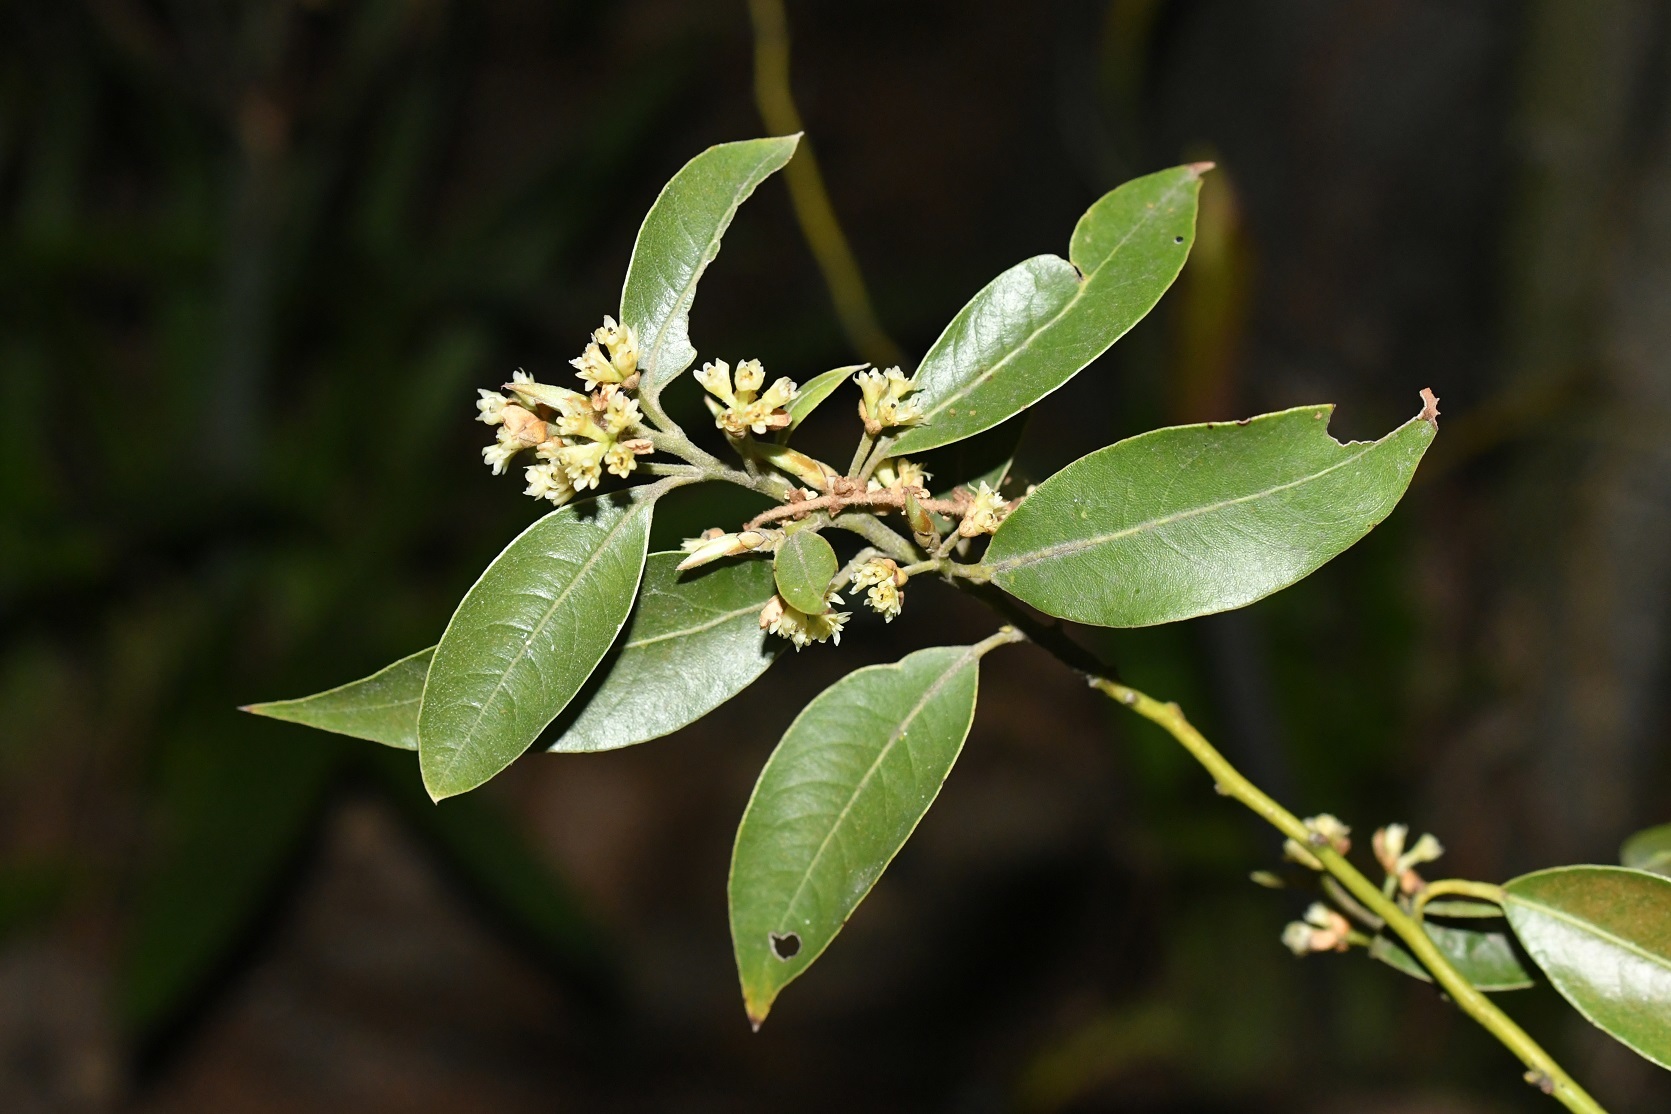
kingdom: Plantae
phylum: Tracheophyta
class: Magnoliopsida
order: Laurales
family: Lauraceae
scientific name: Lauraceae
